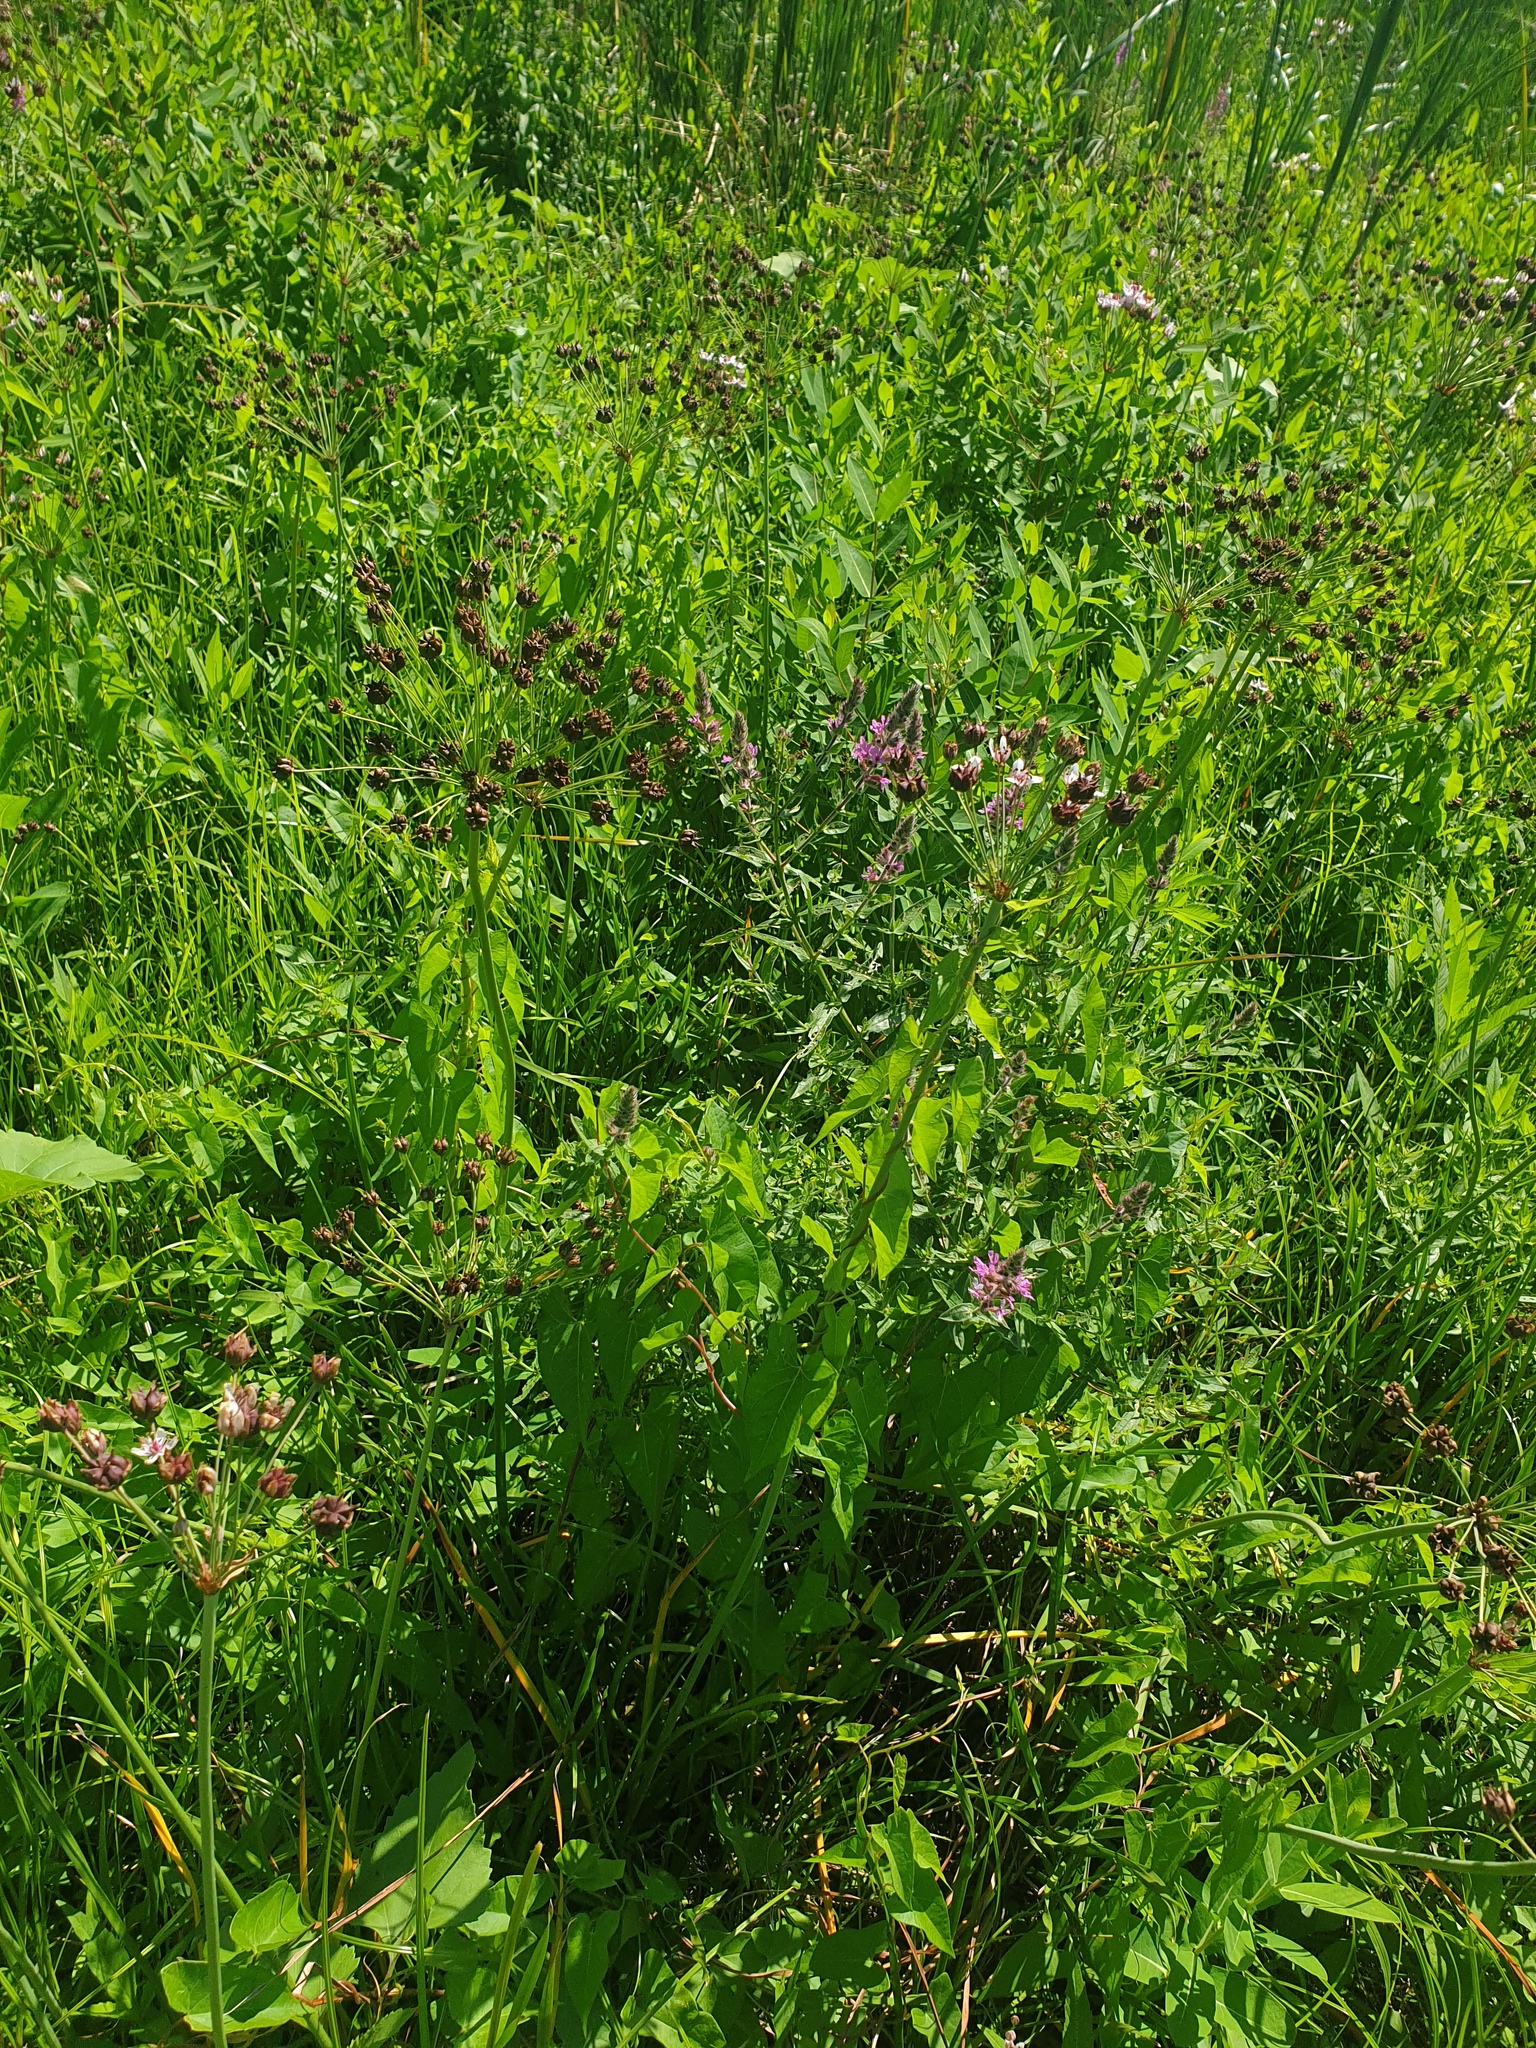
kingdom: Plantae
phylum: Tracheophyta
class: Liliopsida
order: Alismatales
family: Butomaceae
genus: Butomus
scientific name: Butomus umbellatus
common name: Flowering-rush
